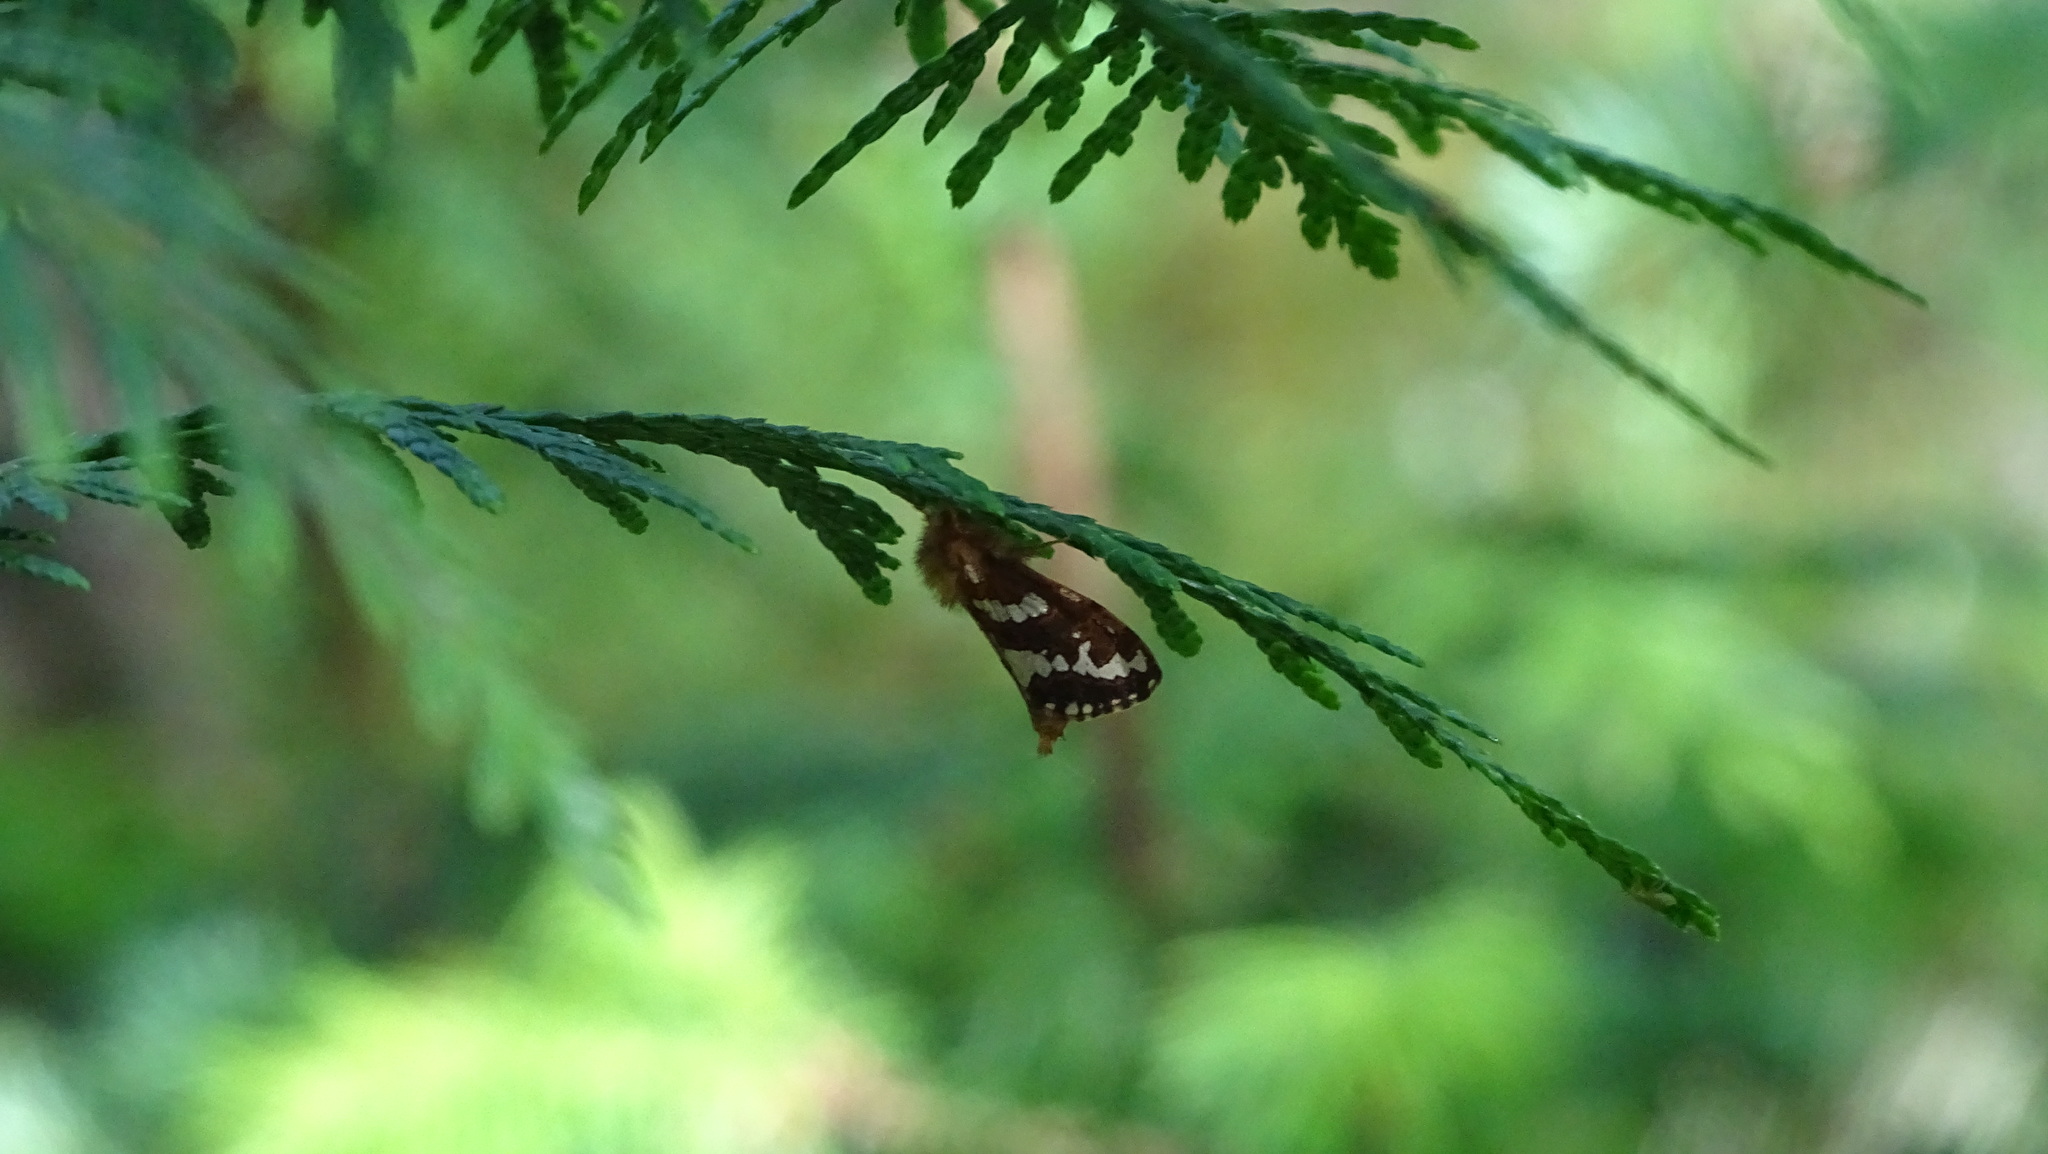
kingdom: Animalia
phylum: Arthropoda
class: Insecta
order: Lepidoptera
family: Hepialidae
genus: Phymatopus
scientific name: Phymatopus hecta
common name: Gold swift
